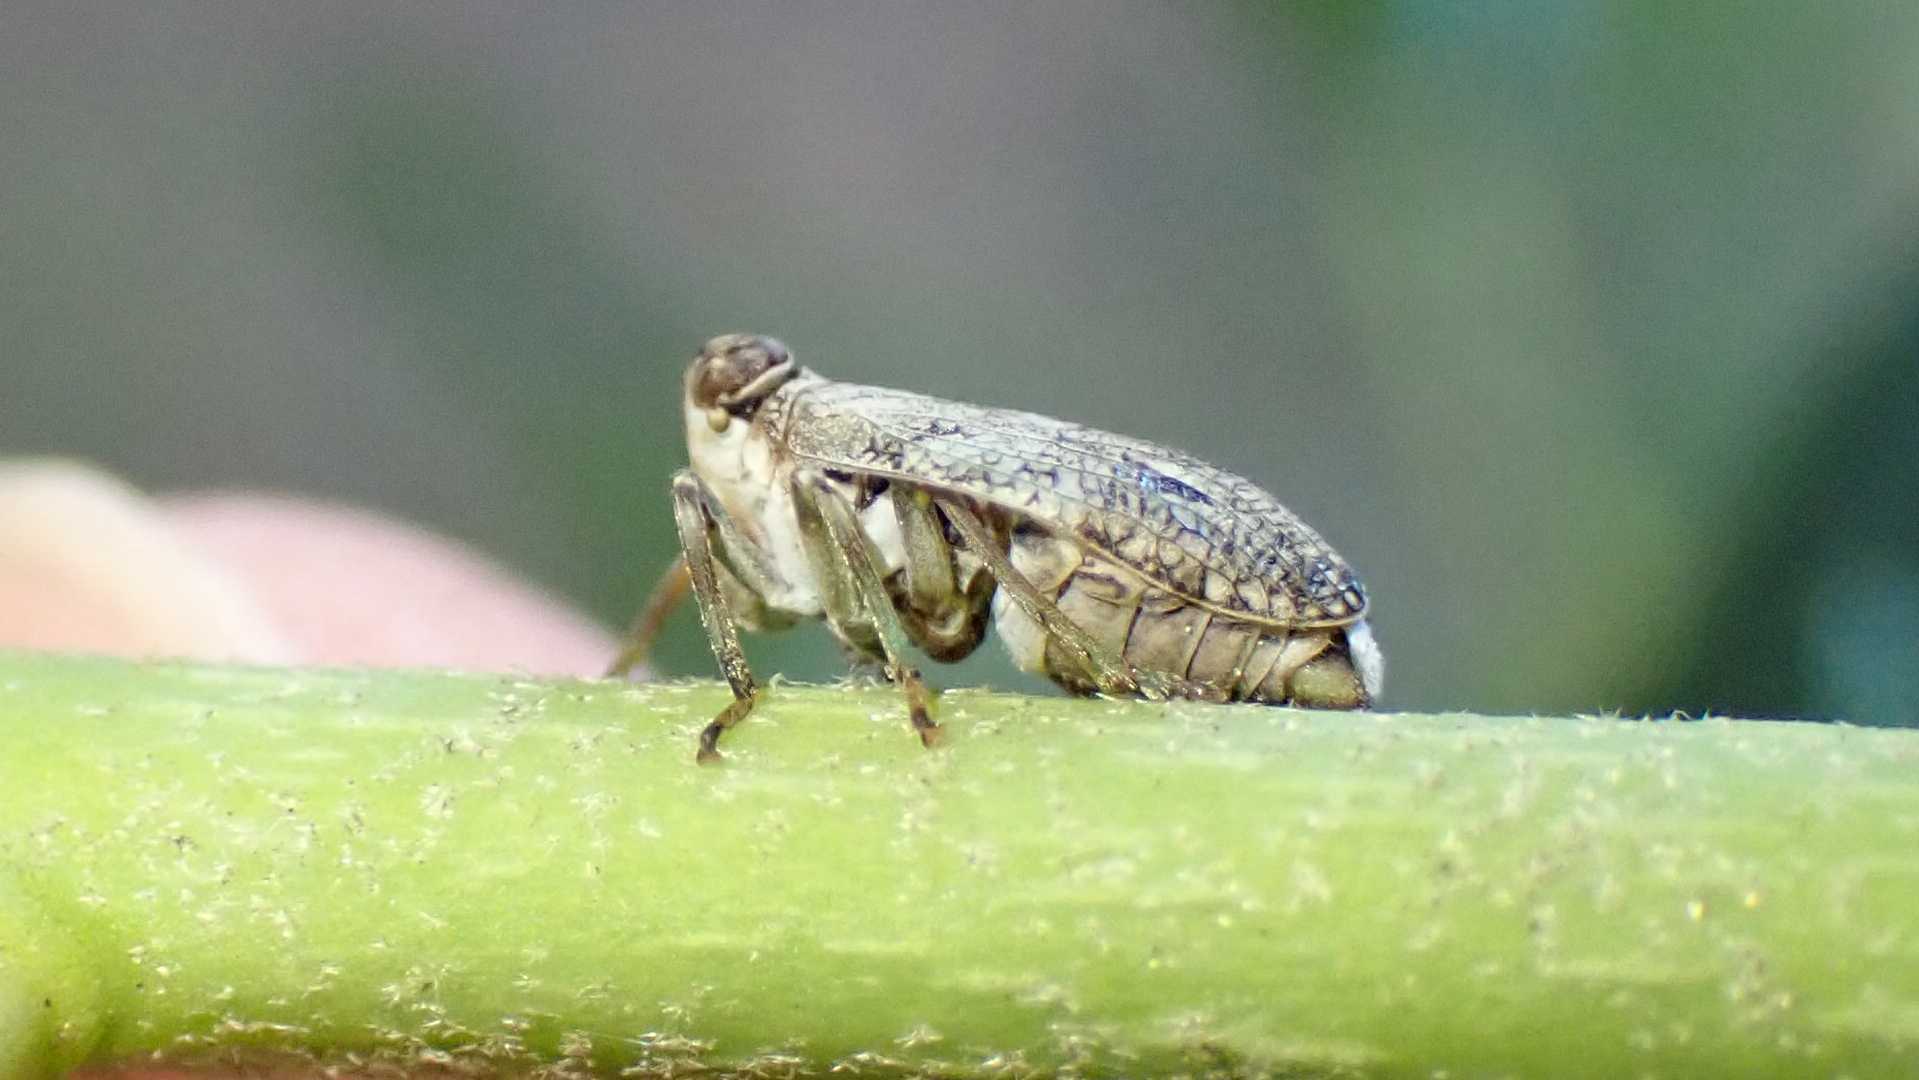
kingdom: Animalia
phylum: Arthropoda
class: Insecta
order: Hemiptera
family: Issidae
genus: Issus
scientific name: Issus coleoptratus
